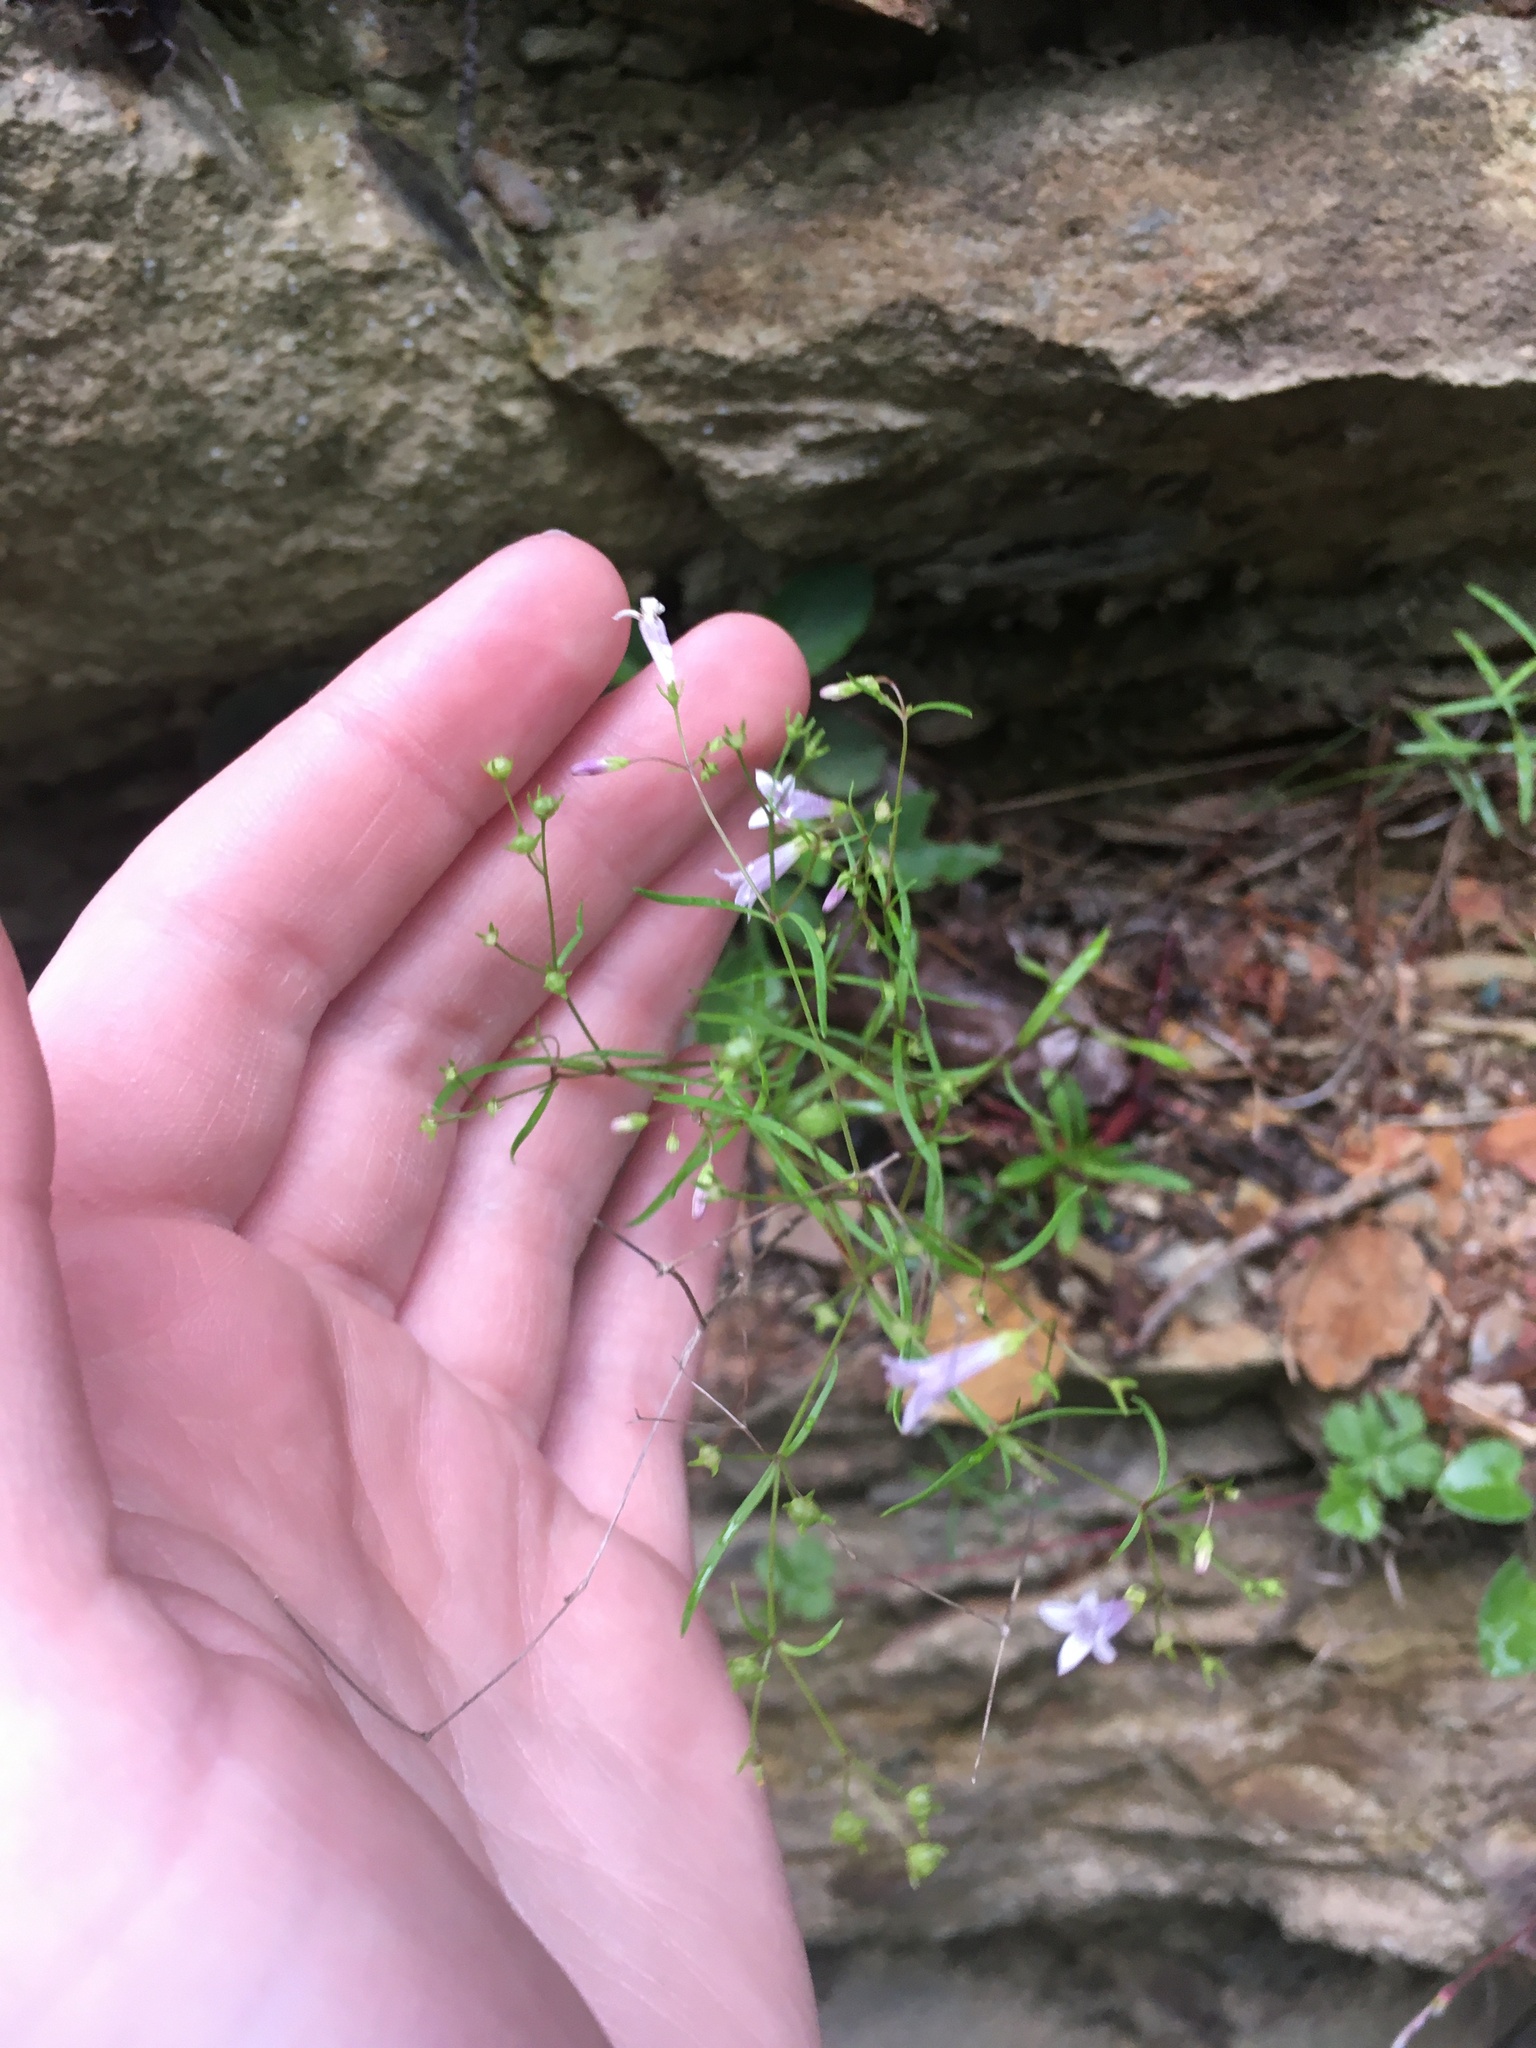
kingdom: Plantae
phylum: Tracheophyta
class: Magnoliopsida
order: Gentianales
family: Rubiaceae
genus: Houstonia
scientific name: Houstonia longifolia
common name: Long-leaved bluets
